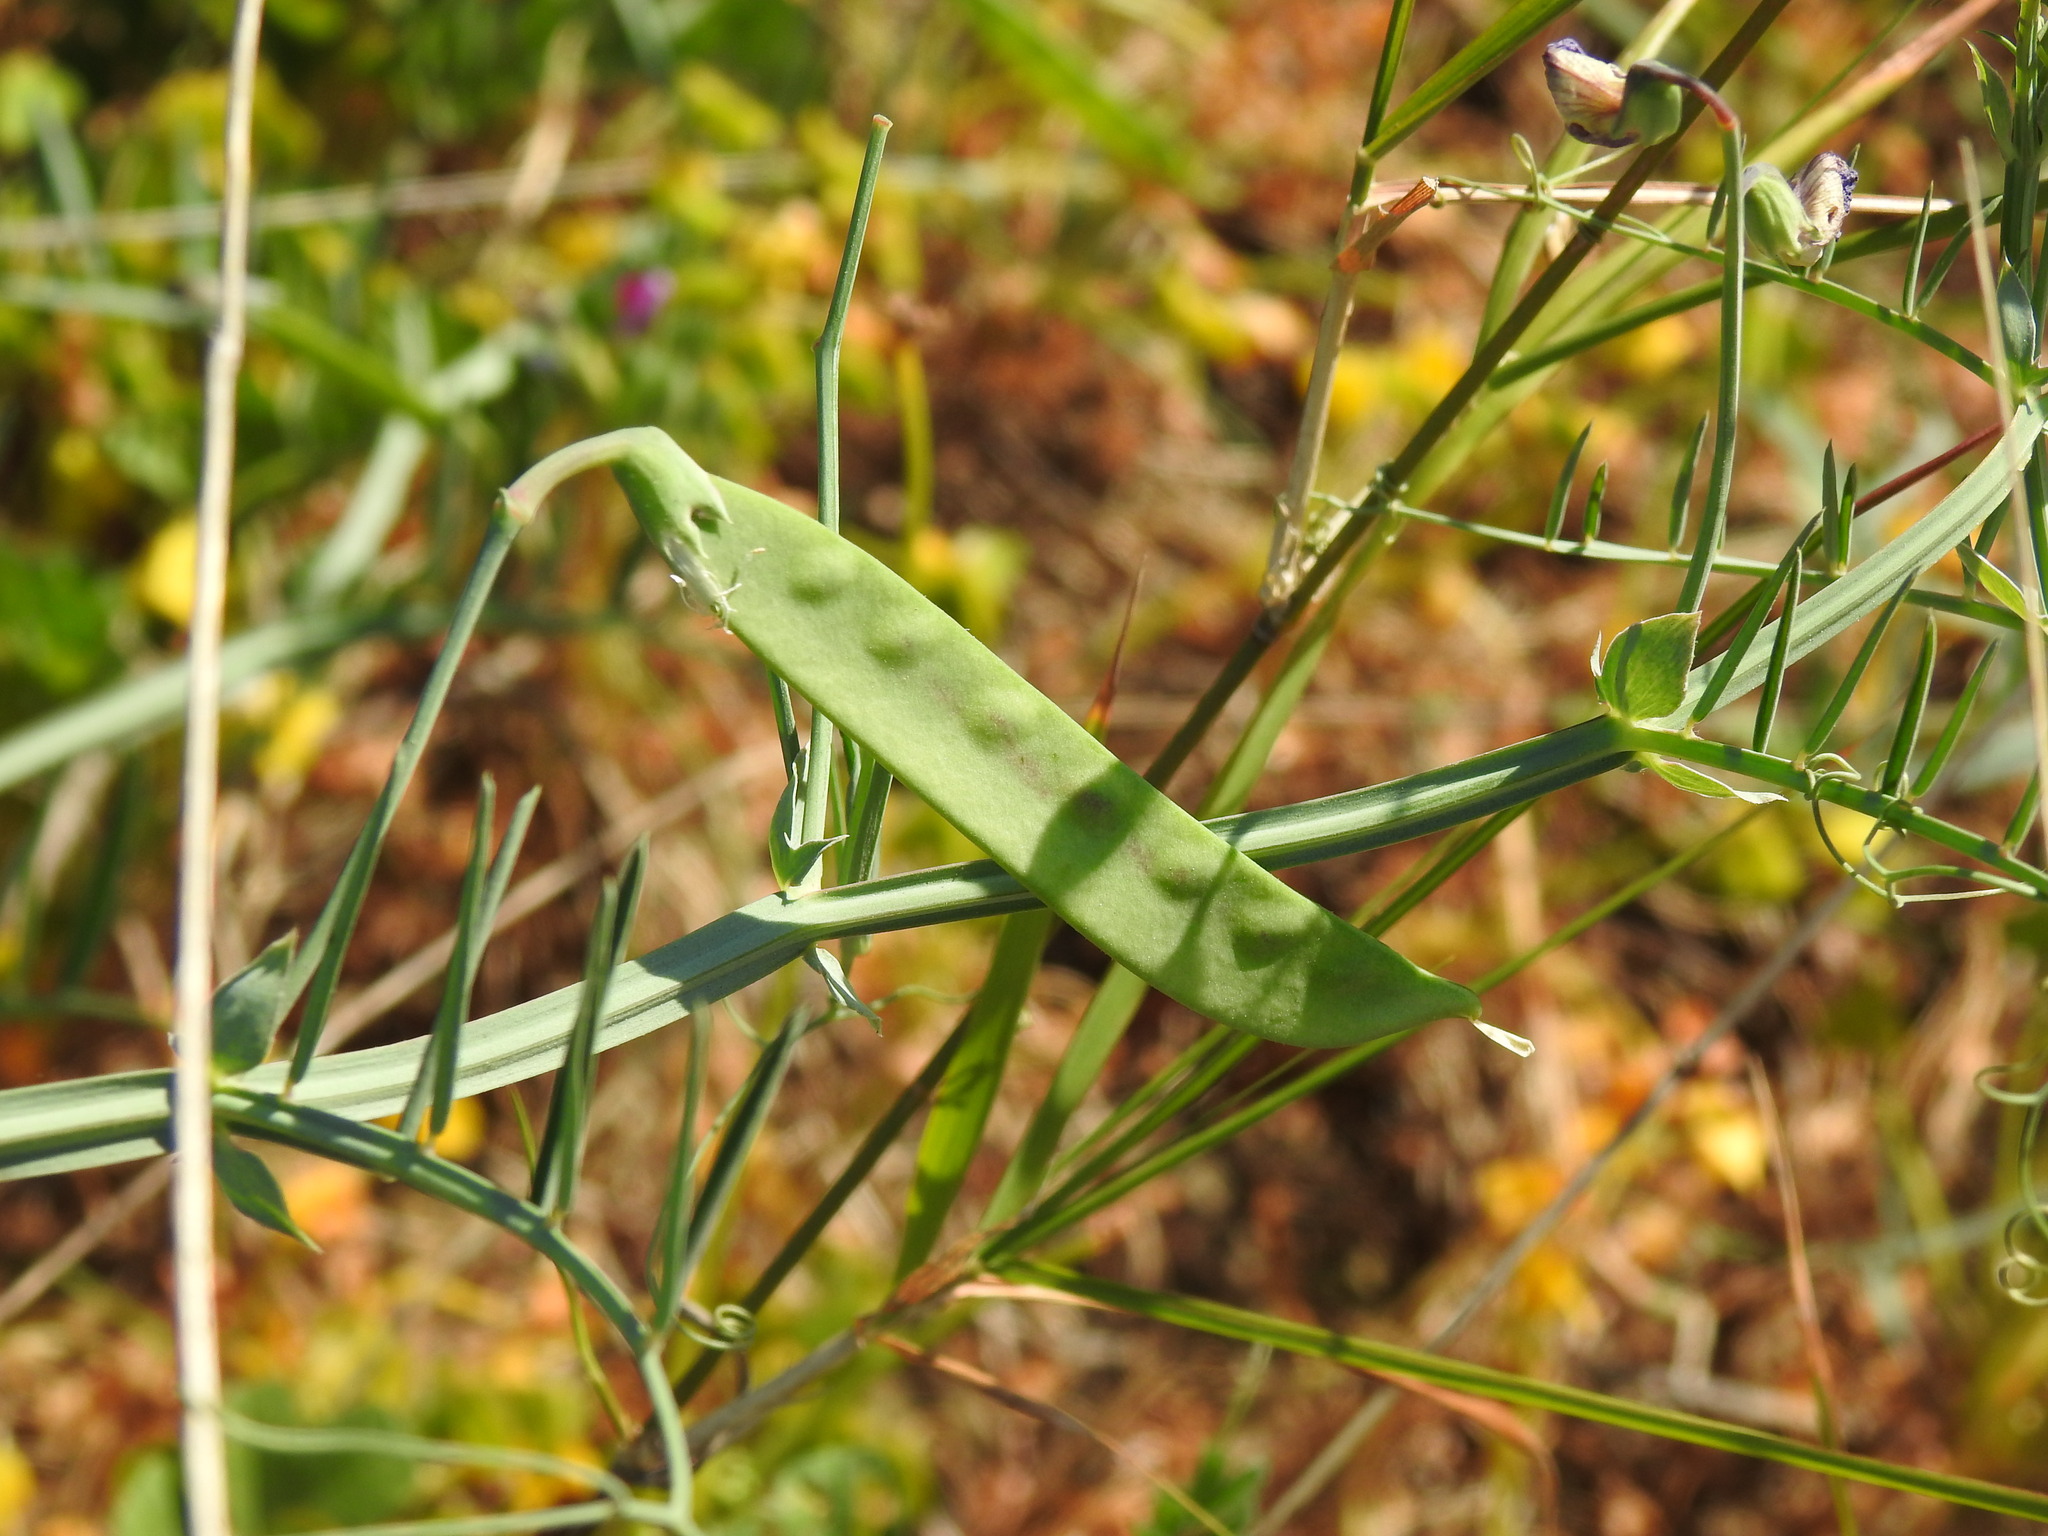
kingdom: Plantae
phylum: Tracheophyta
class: Magnoliopsida
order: Fabales
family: Fabaceae
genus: Lathyrus
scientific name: Lathyrus clymenum
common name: Spanish vetchling
